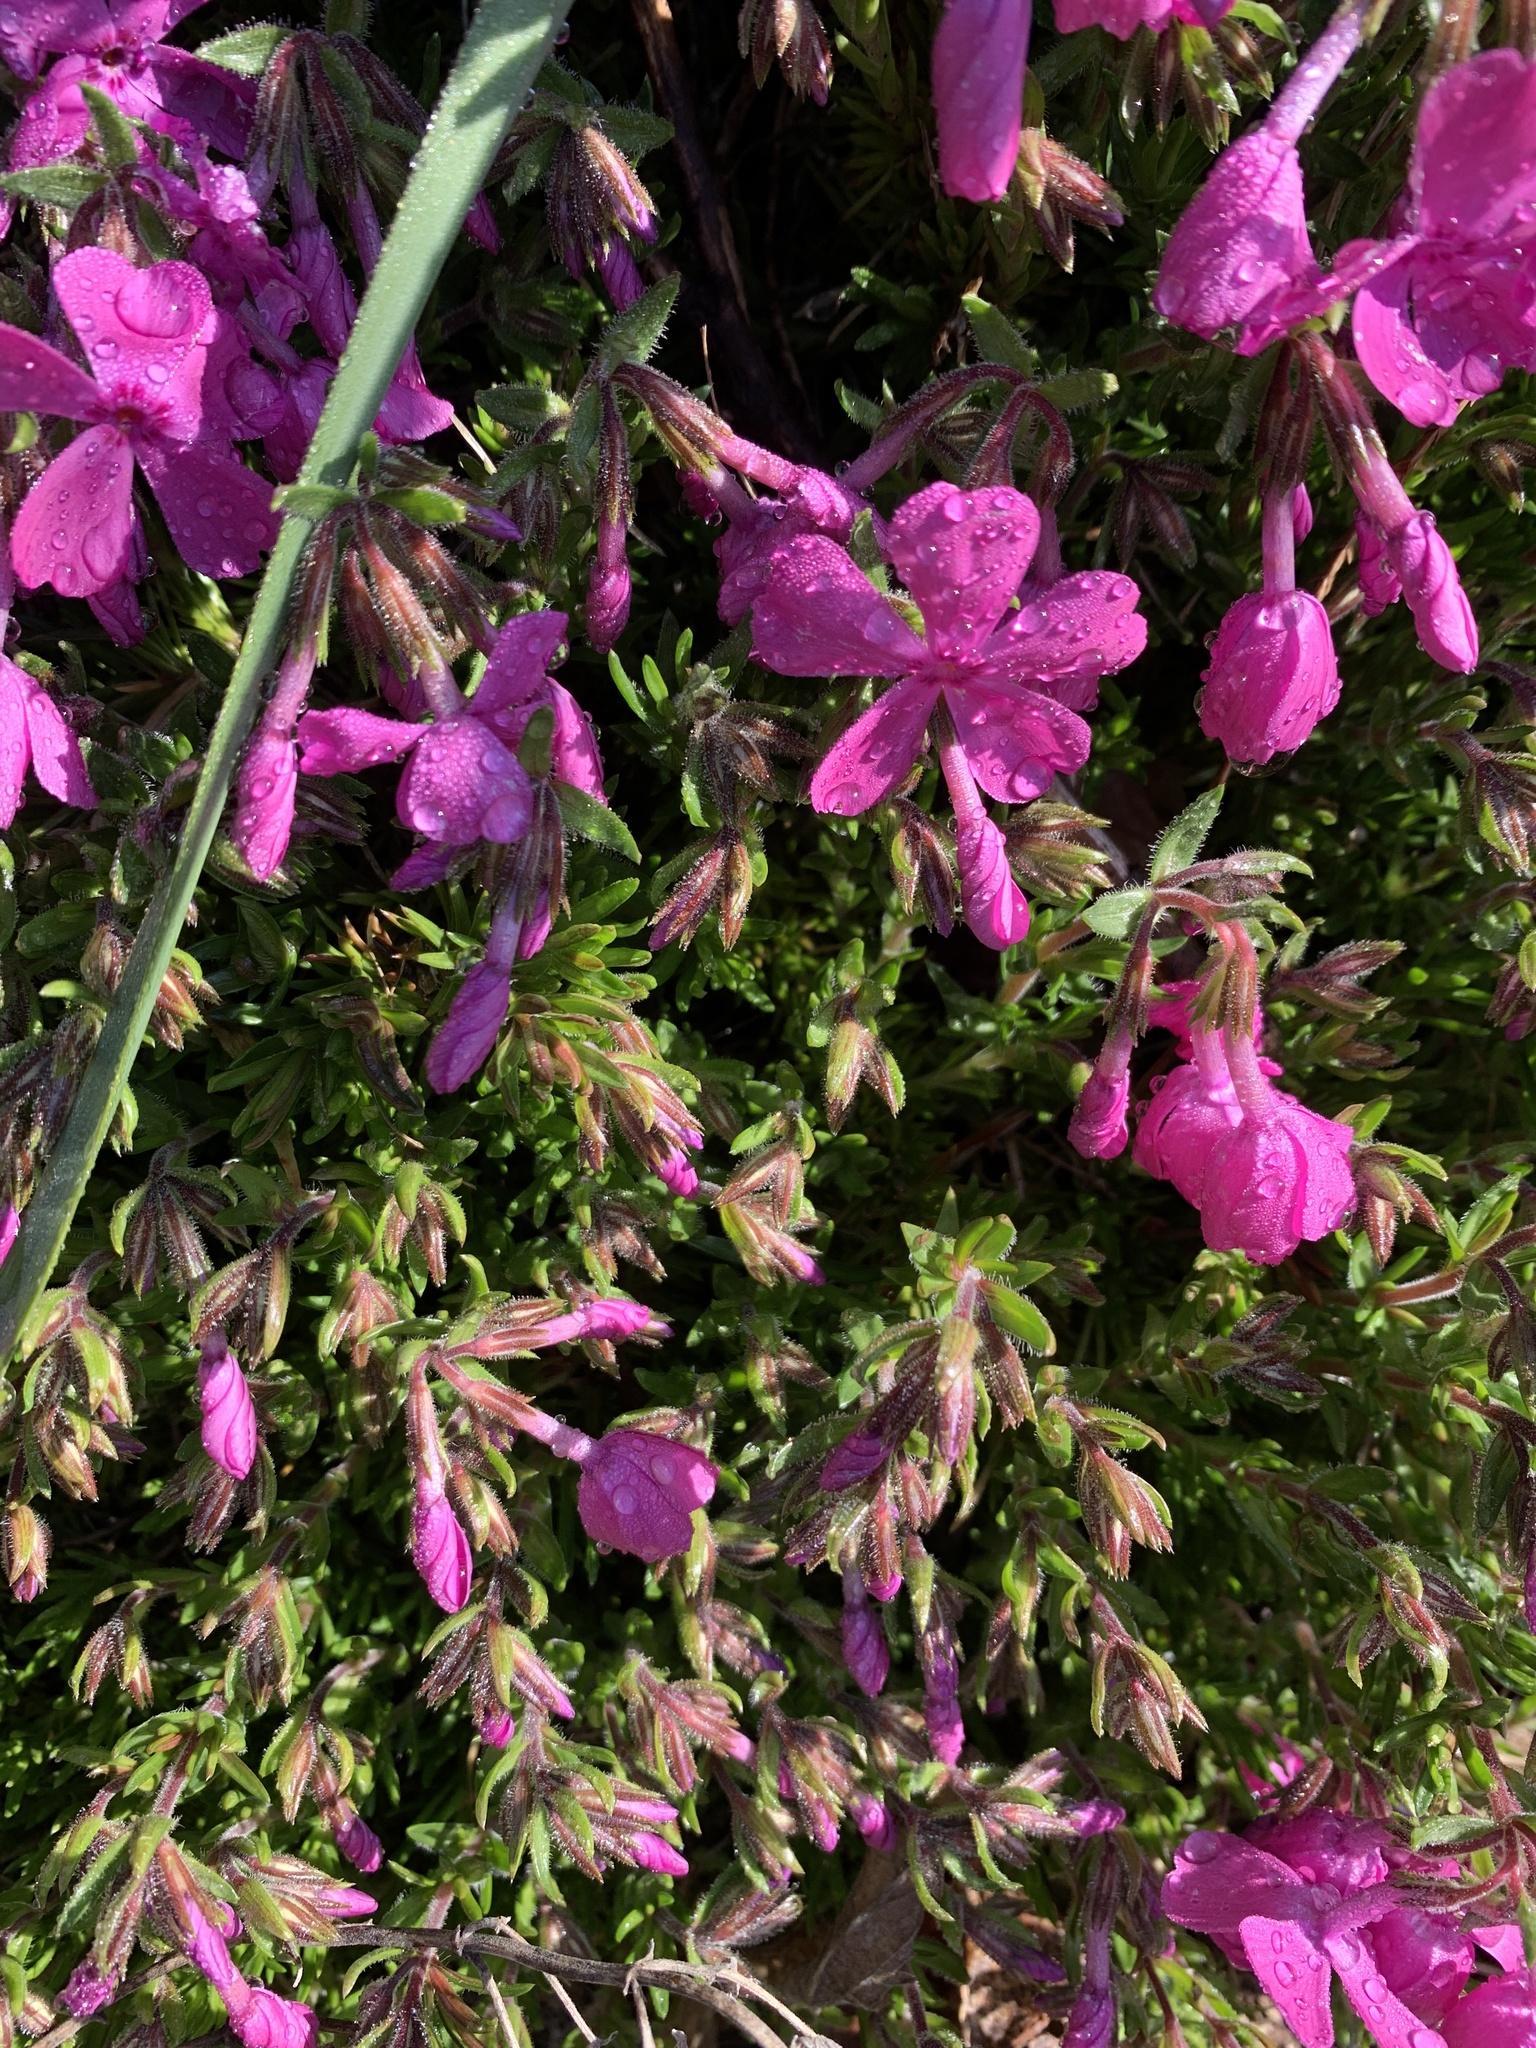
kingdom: Plantae
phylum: Tracheophyta
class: Magnoliopsida
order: Ericales
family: Polemoniaceae
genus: Phlox
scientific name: Phlox subulata
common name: Moss phlox
